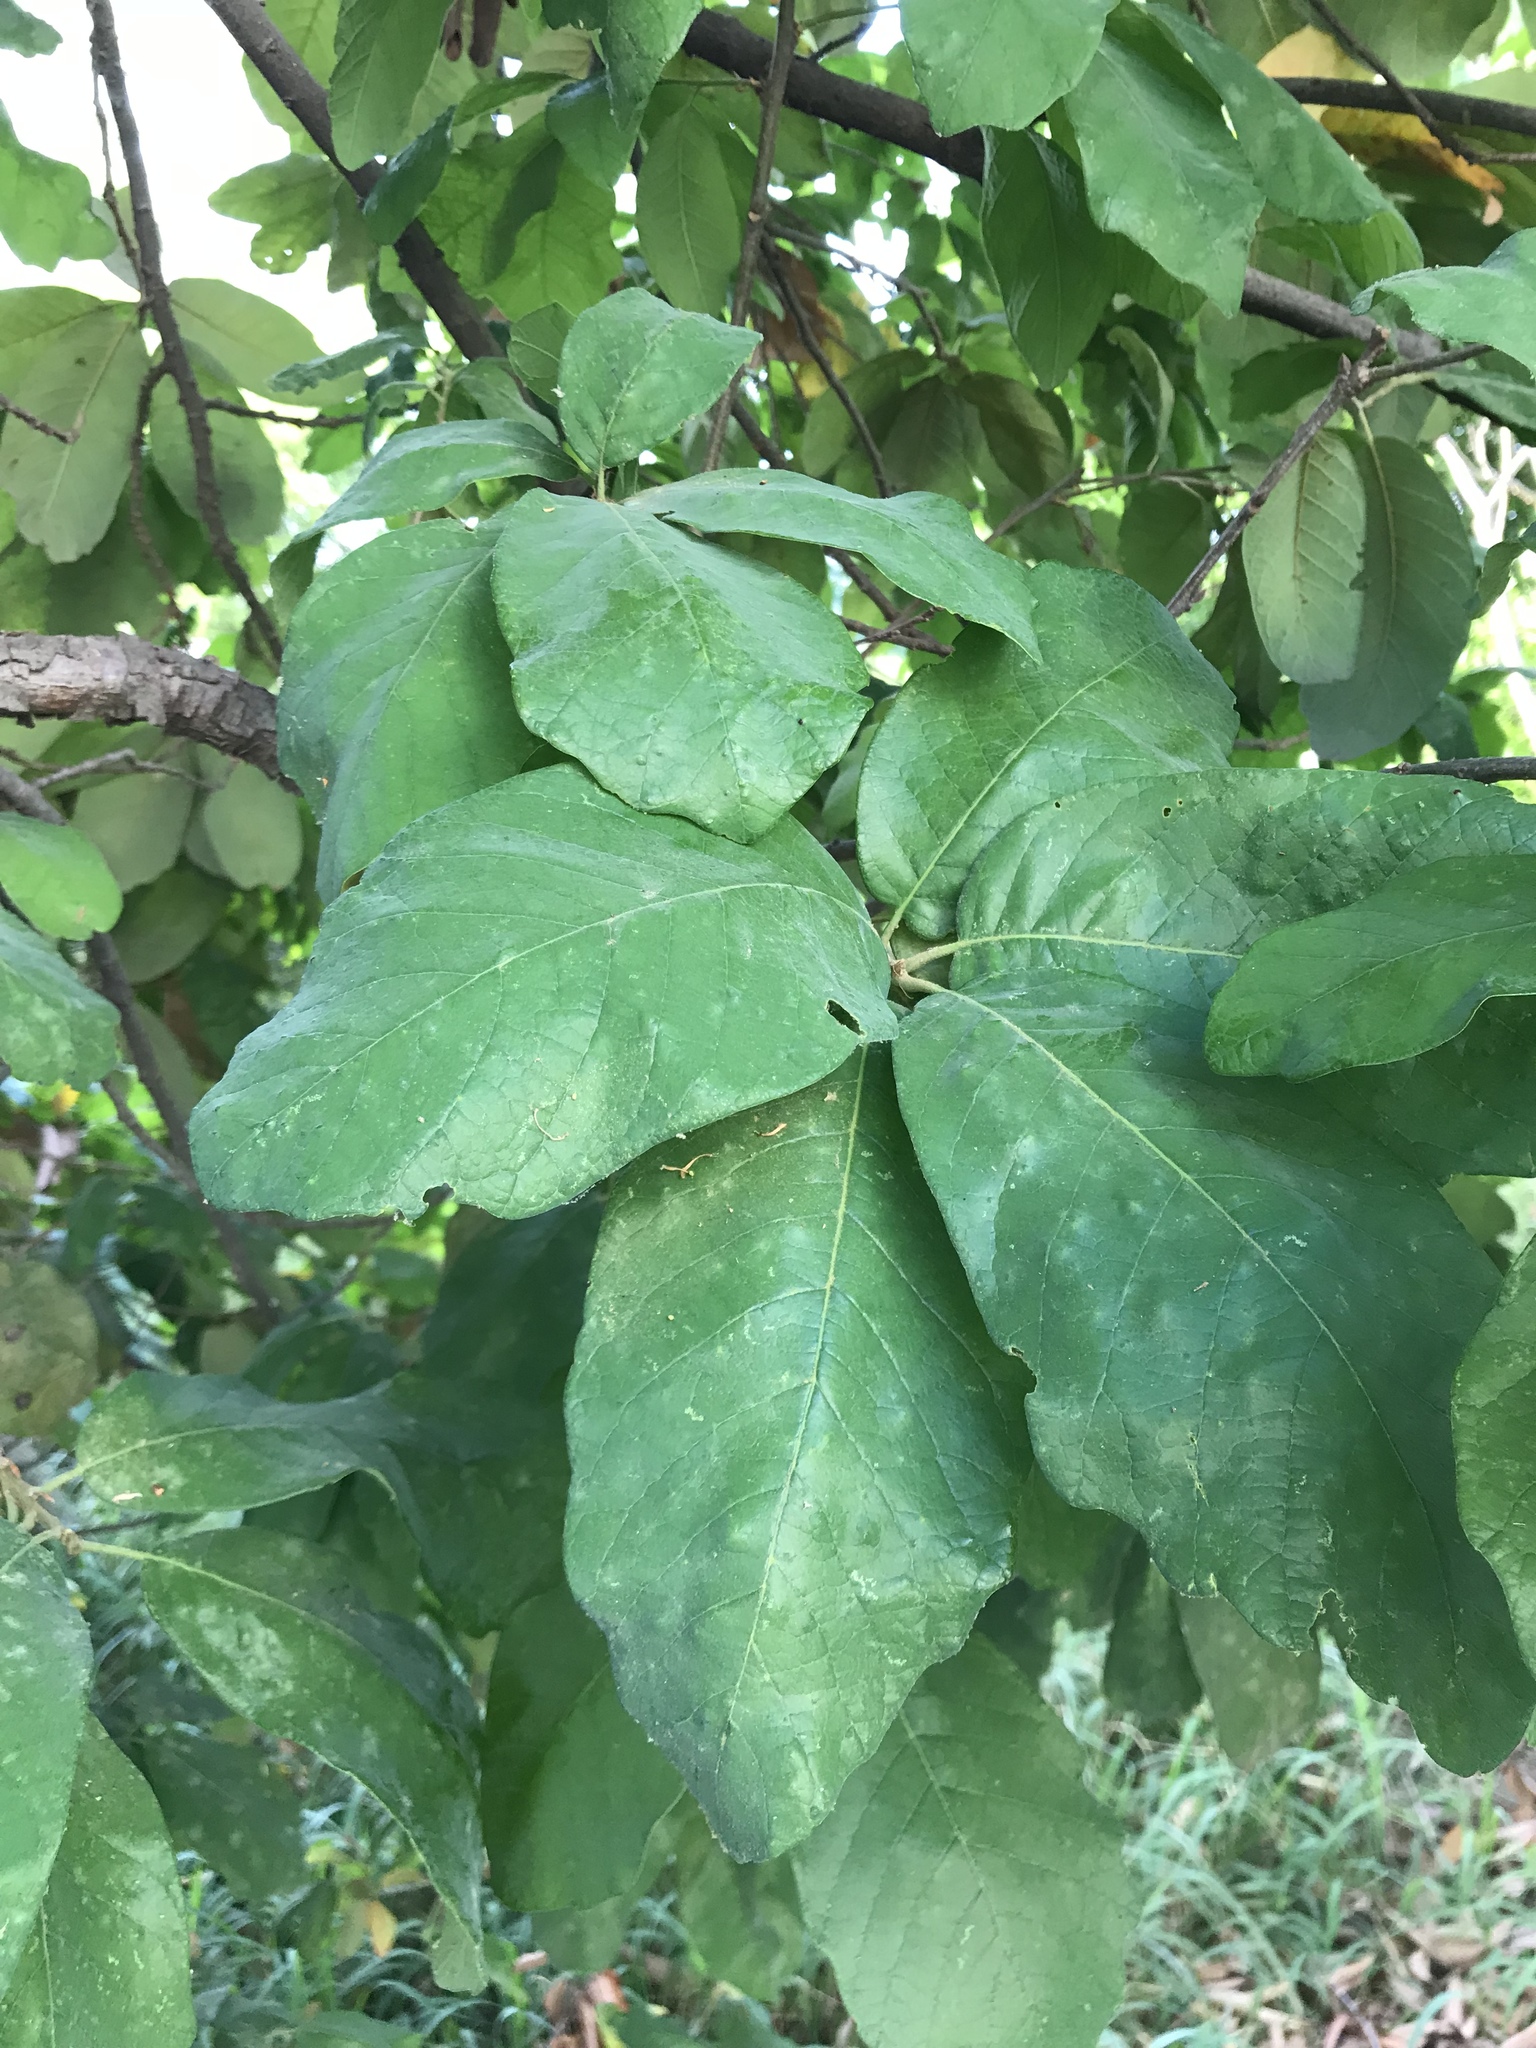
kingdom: Plantae
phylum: Tracheophyta
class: Magnoliopsida
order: Fagales
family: Fagaceae
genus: Quercus
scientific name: Quercus polymorpha
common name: Mexican white oak
